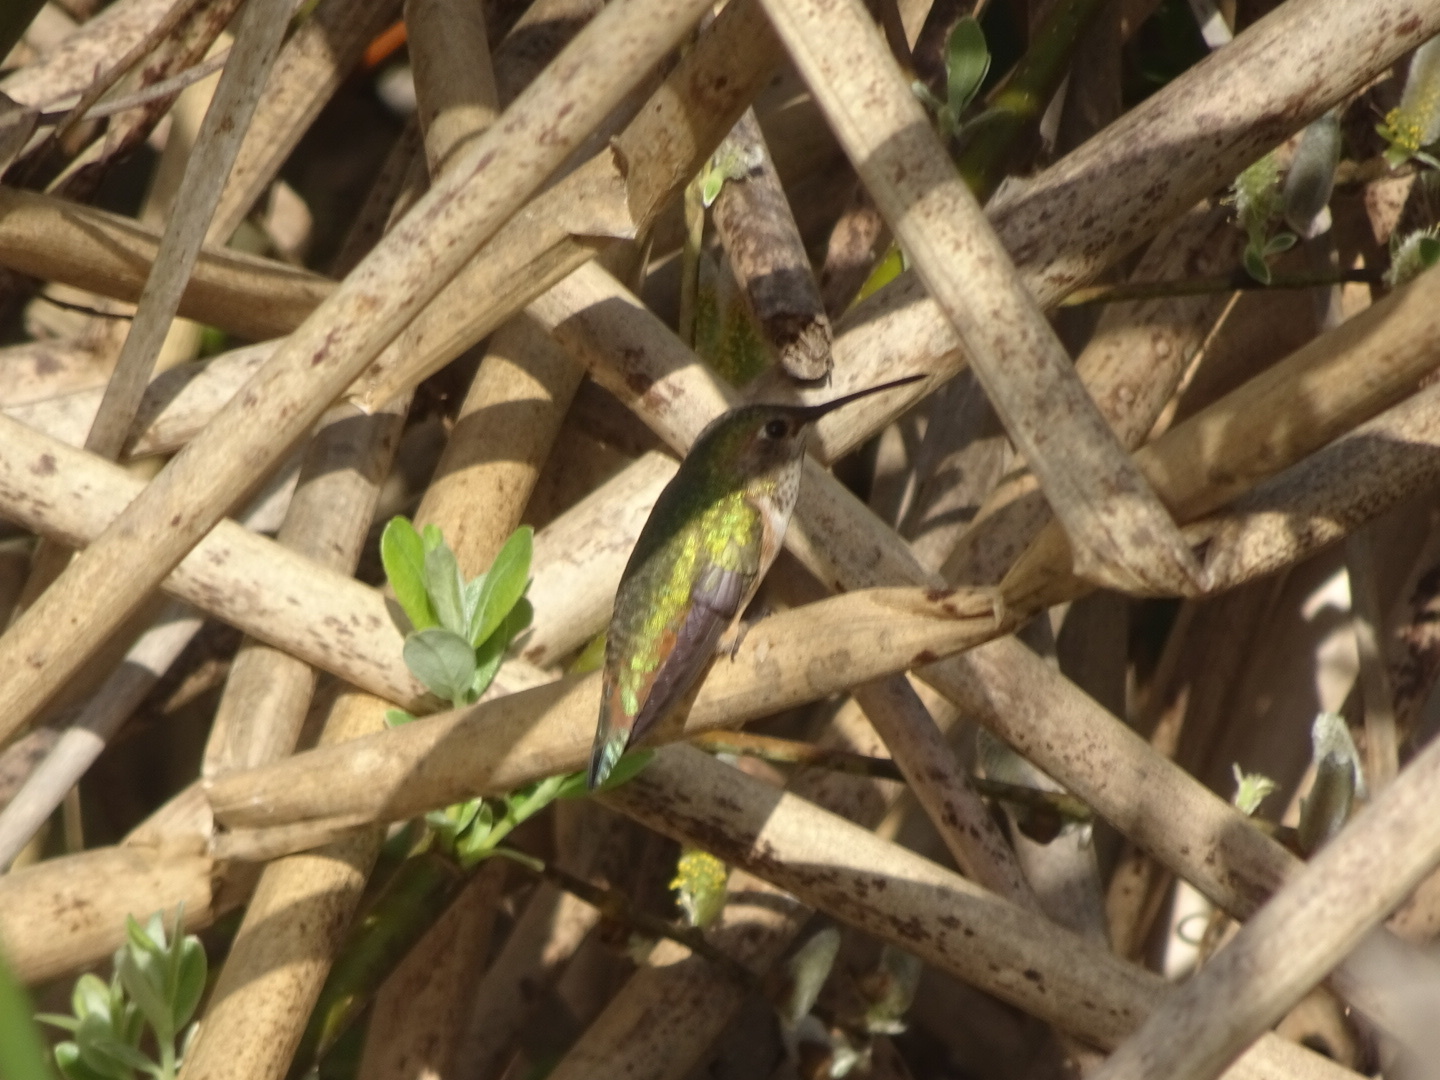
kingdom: Animalia
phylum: Chordata
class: Aves
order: Apodiformes
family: Trochilidae
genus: Selasphorus
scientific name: Selasphorus sasin
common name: Allen's hummingbird
